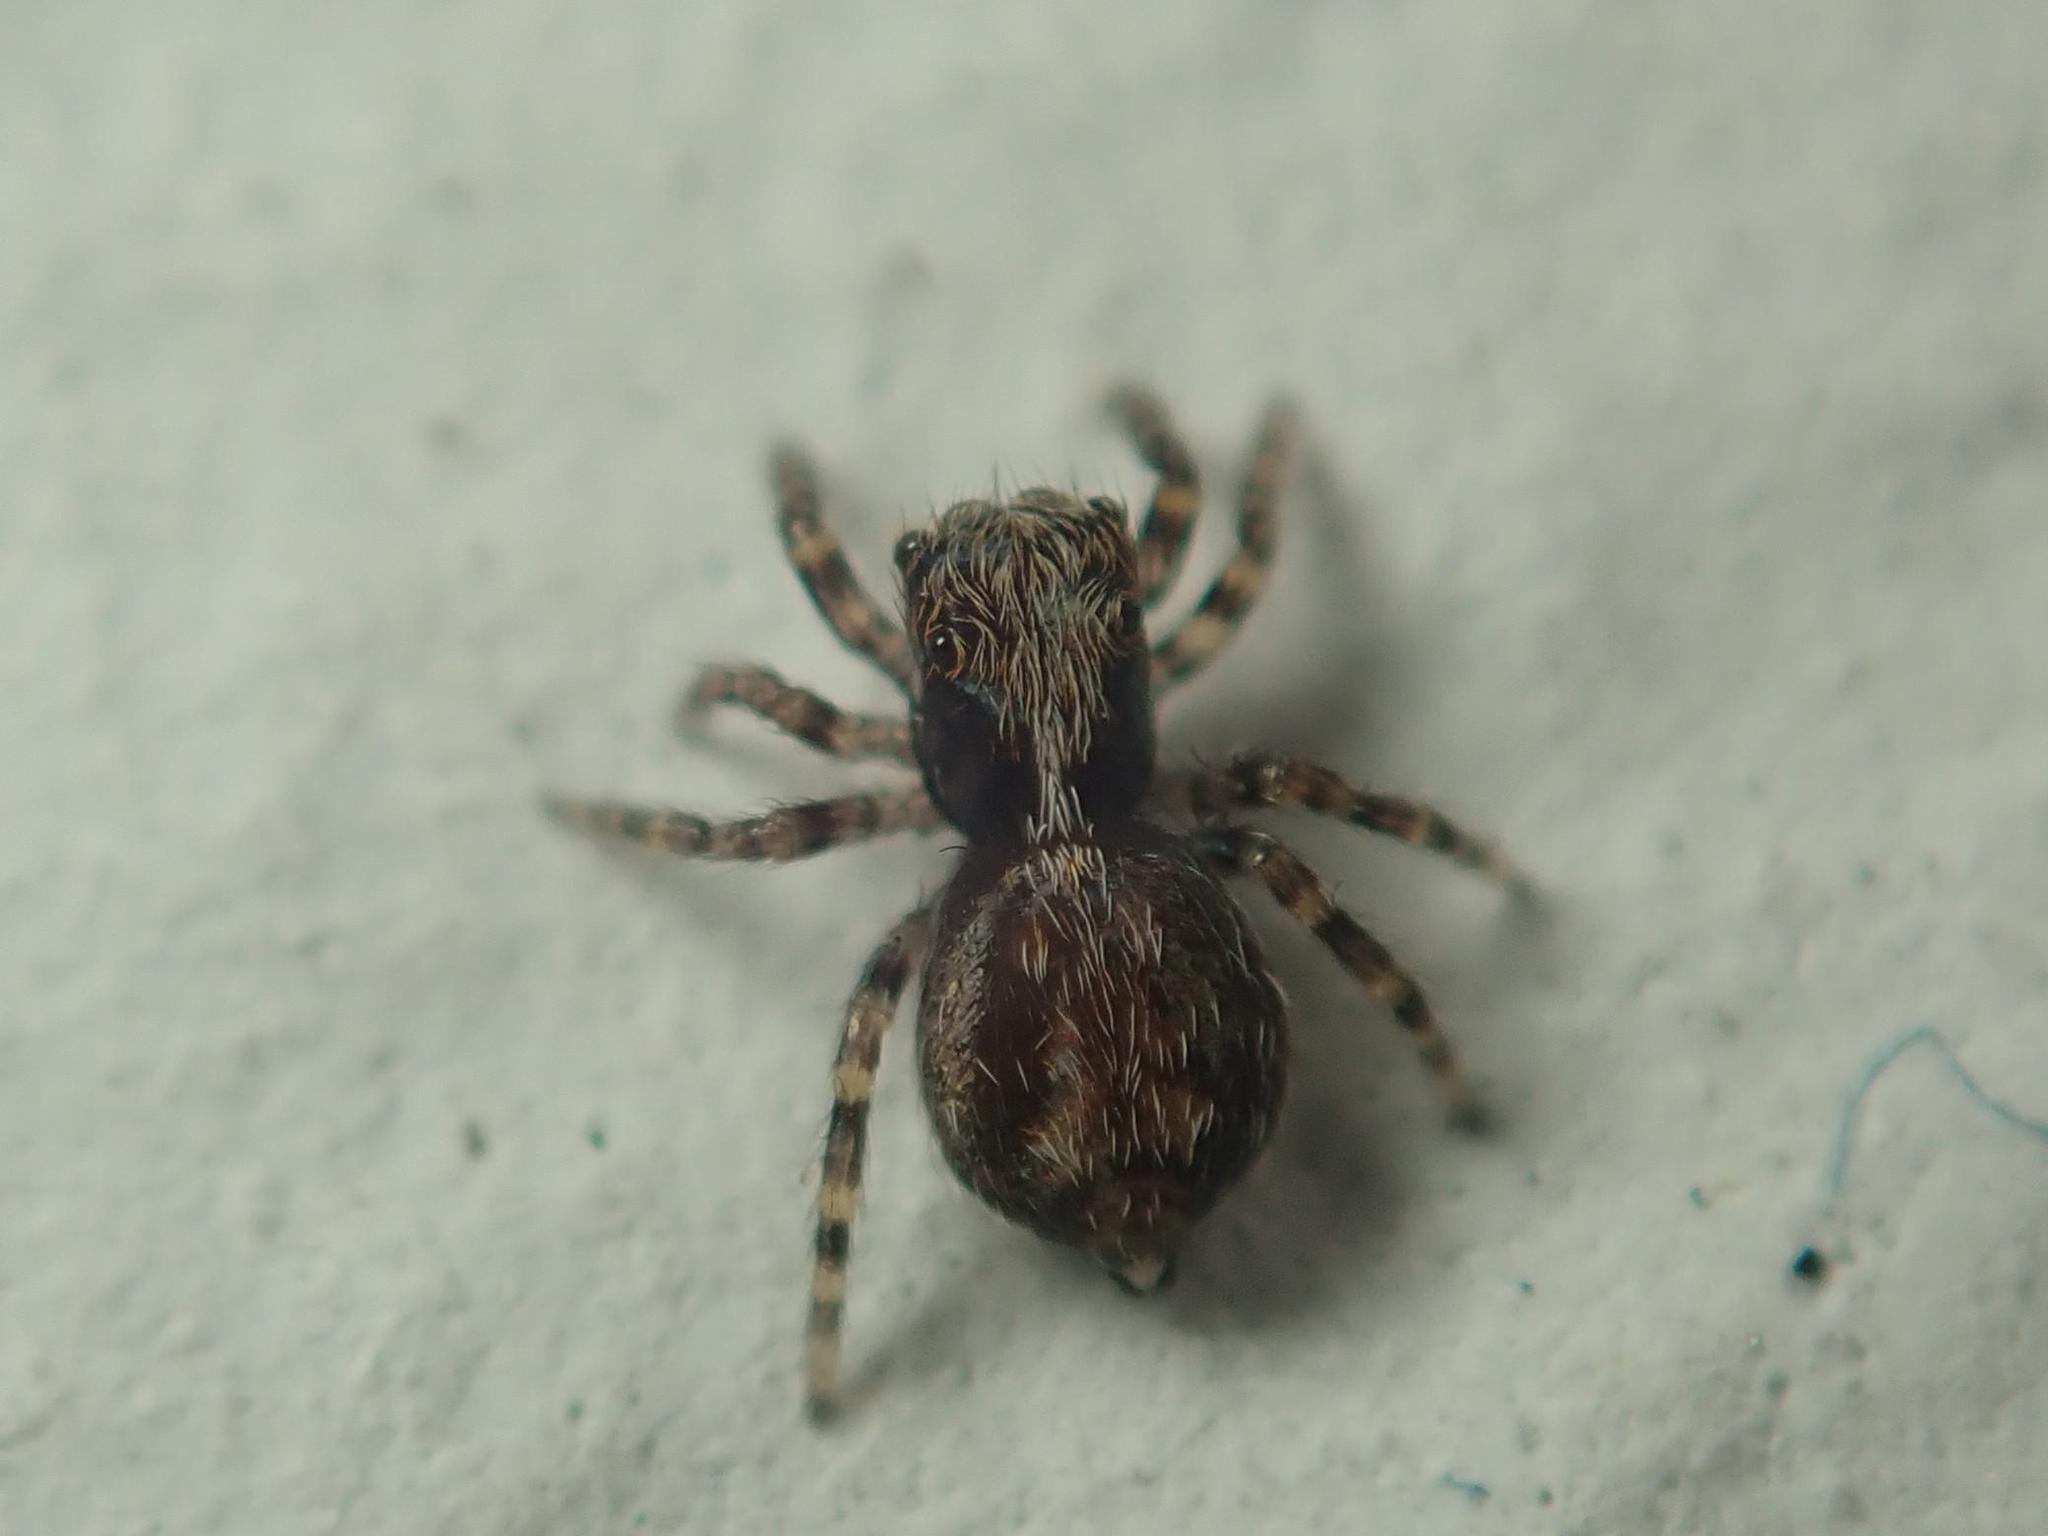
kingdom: Animalia
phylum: Arthropoda
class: Arachnida
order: Araneae
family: Salticidae
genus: Pseudeuophrys
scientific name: Pseudeuophrys lanigera
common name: Jumping spider
